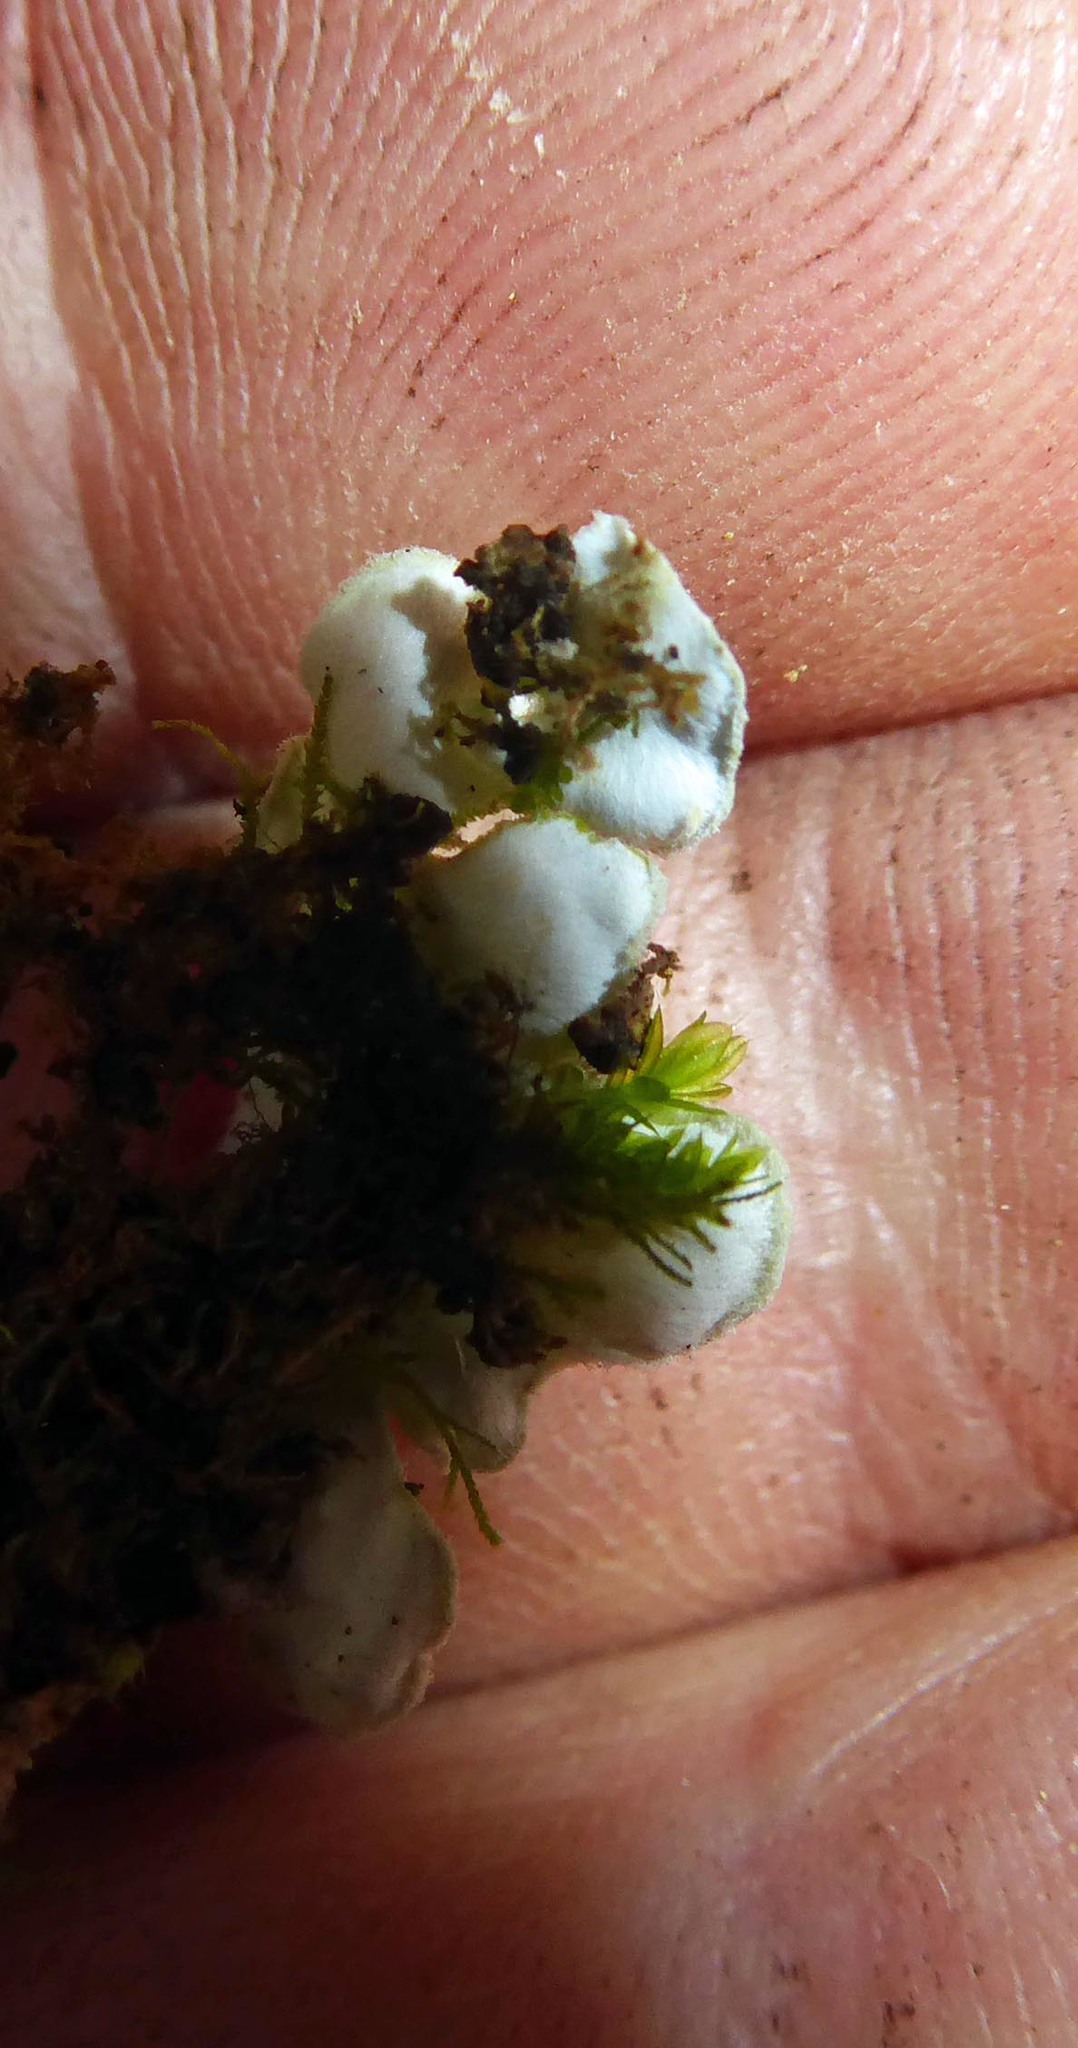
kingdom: Fungi
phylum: Ascomycota
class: Lecanoromycetes
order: Peltigerales
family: Pannariaceae
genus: Pannaria
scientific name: Pannaria
